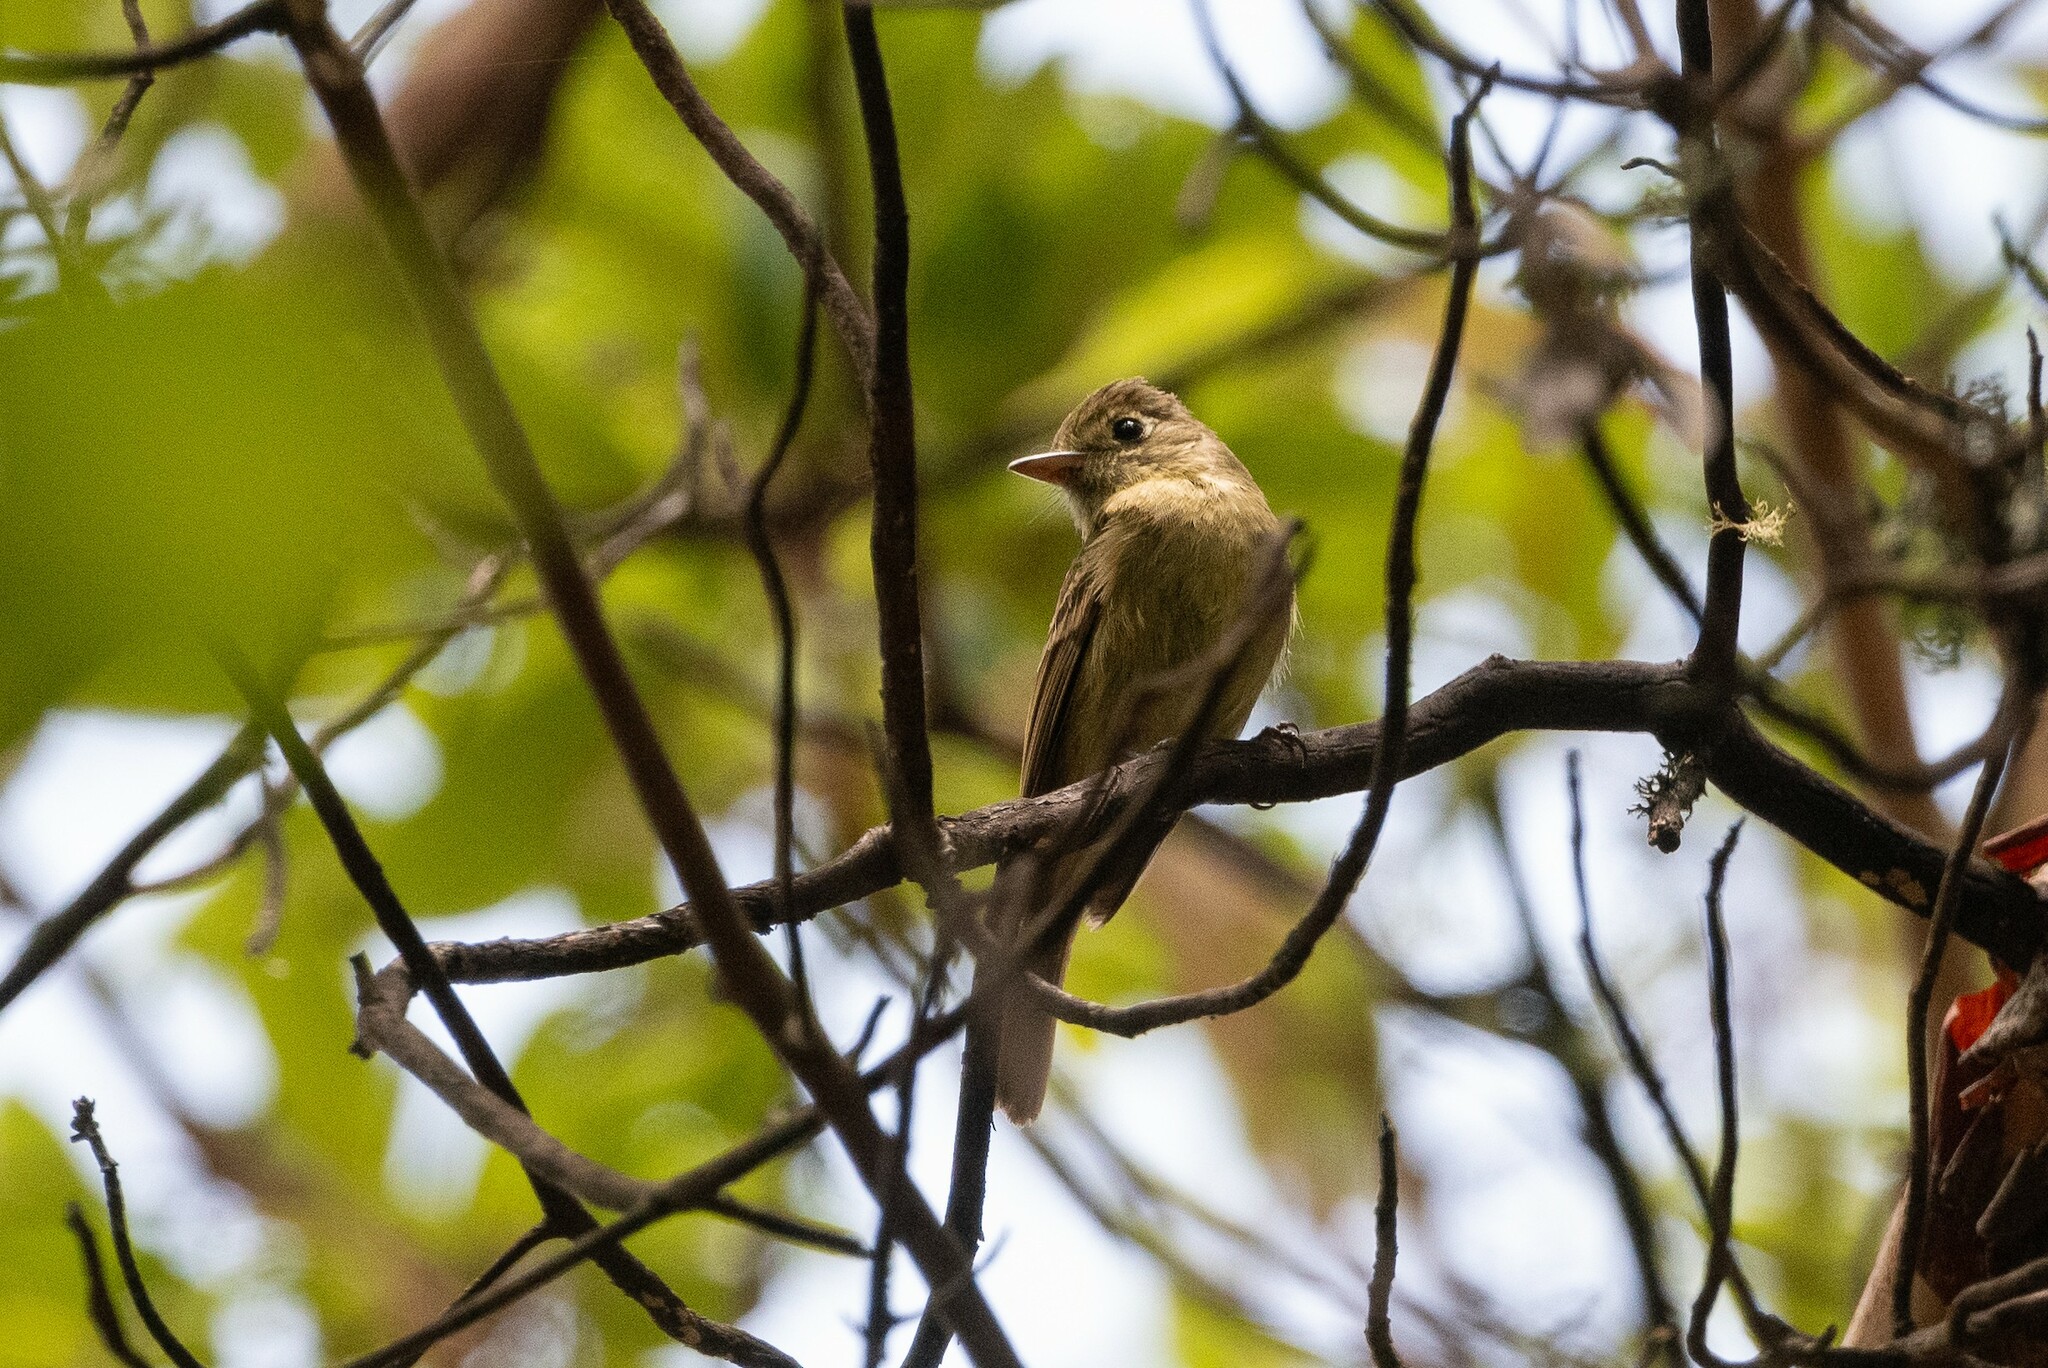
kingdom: Animalia
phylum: Chordata
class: Aves
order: Passeriformes
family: Tyrannidae
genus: Empidonax
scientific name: Empidonax difficilis
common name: Pacific-slope flycatcher
